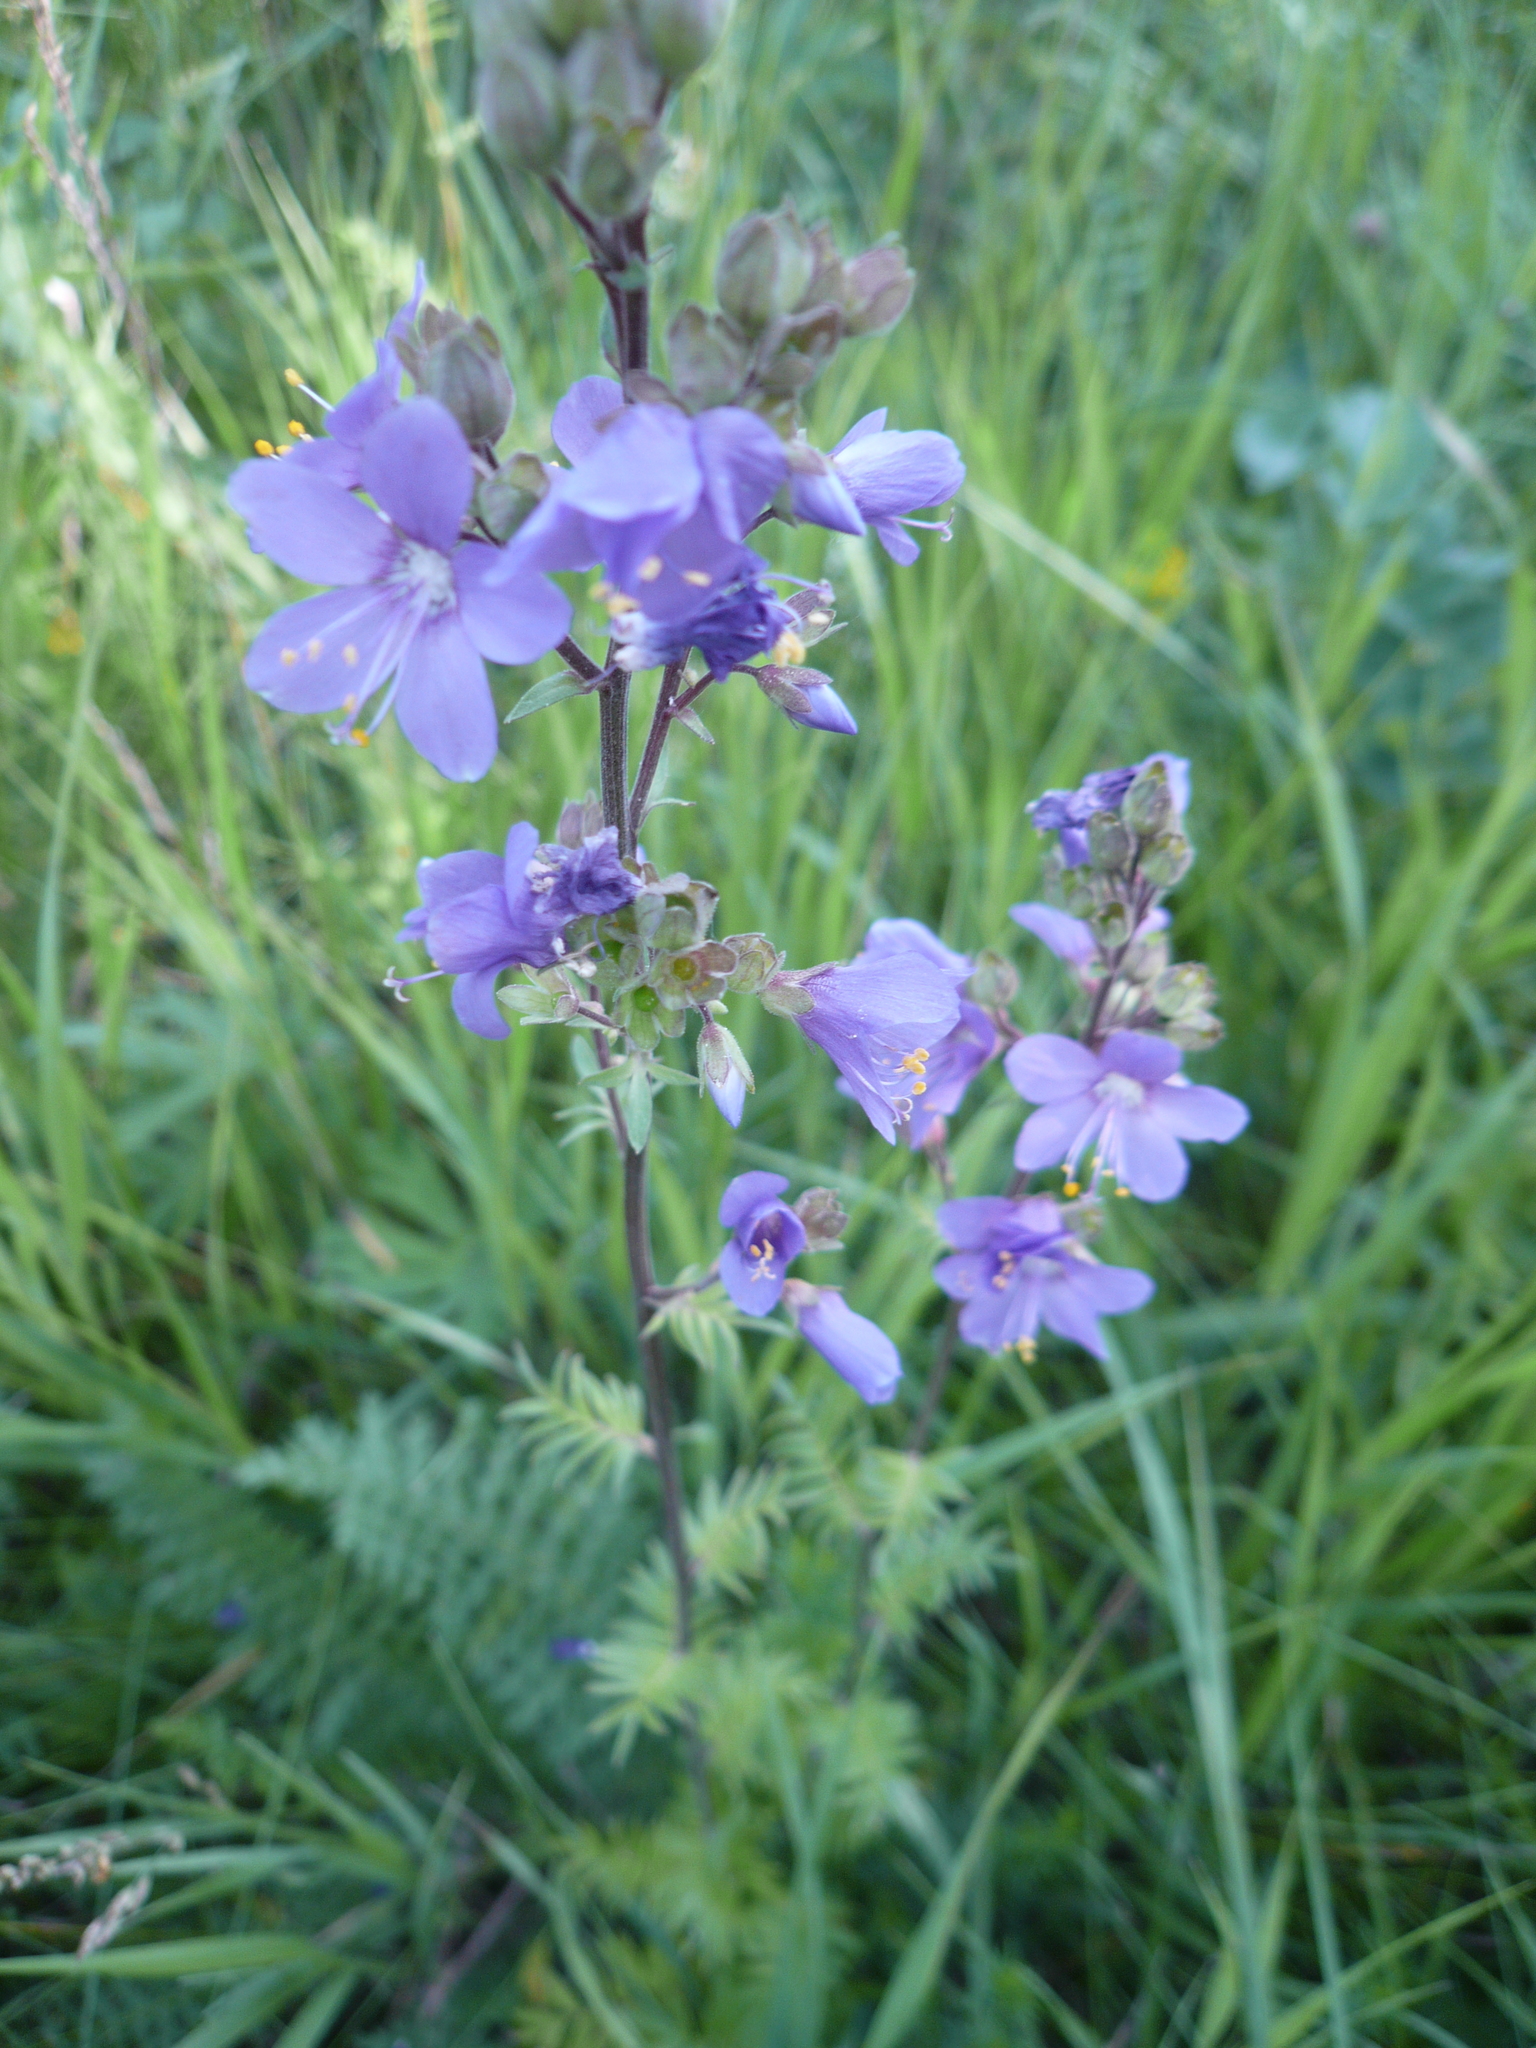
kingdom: Plantae
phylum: Tracheophyta
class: Magnoliopsida
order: Ericales
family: Polemoniaceae
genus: Polemonium
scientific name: Polemonium caeruleum
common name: Jacob's-ladder
